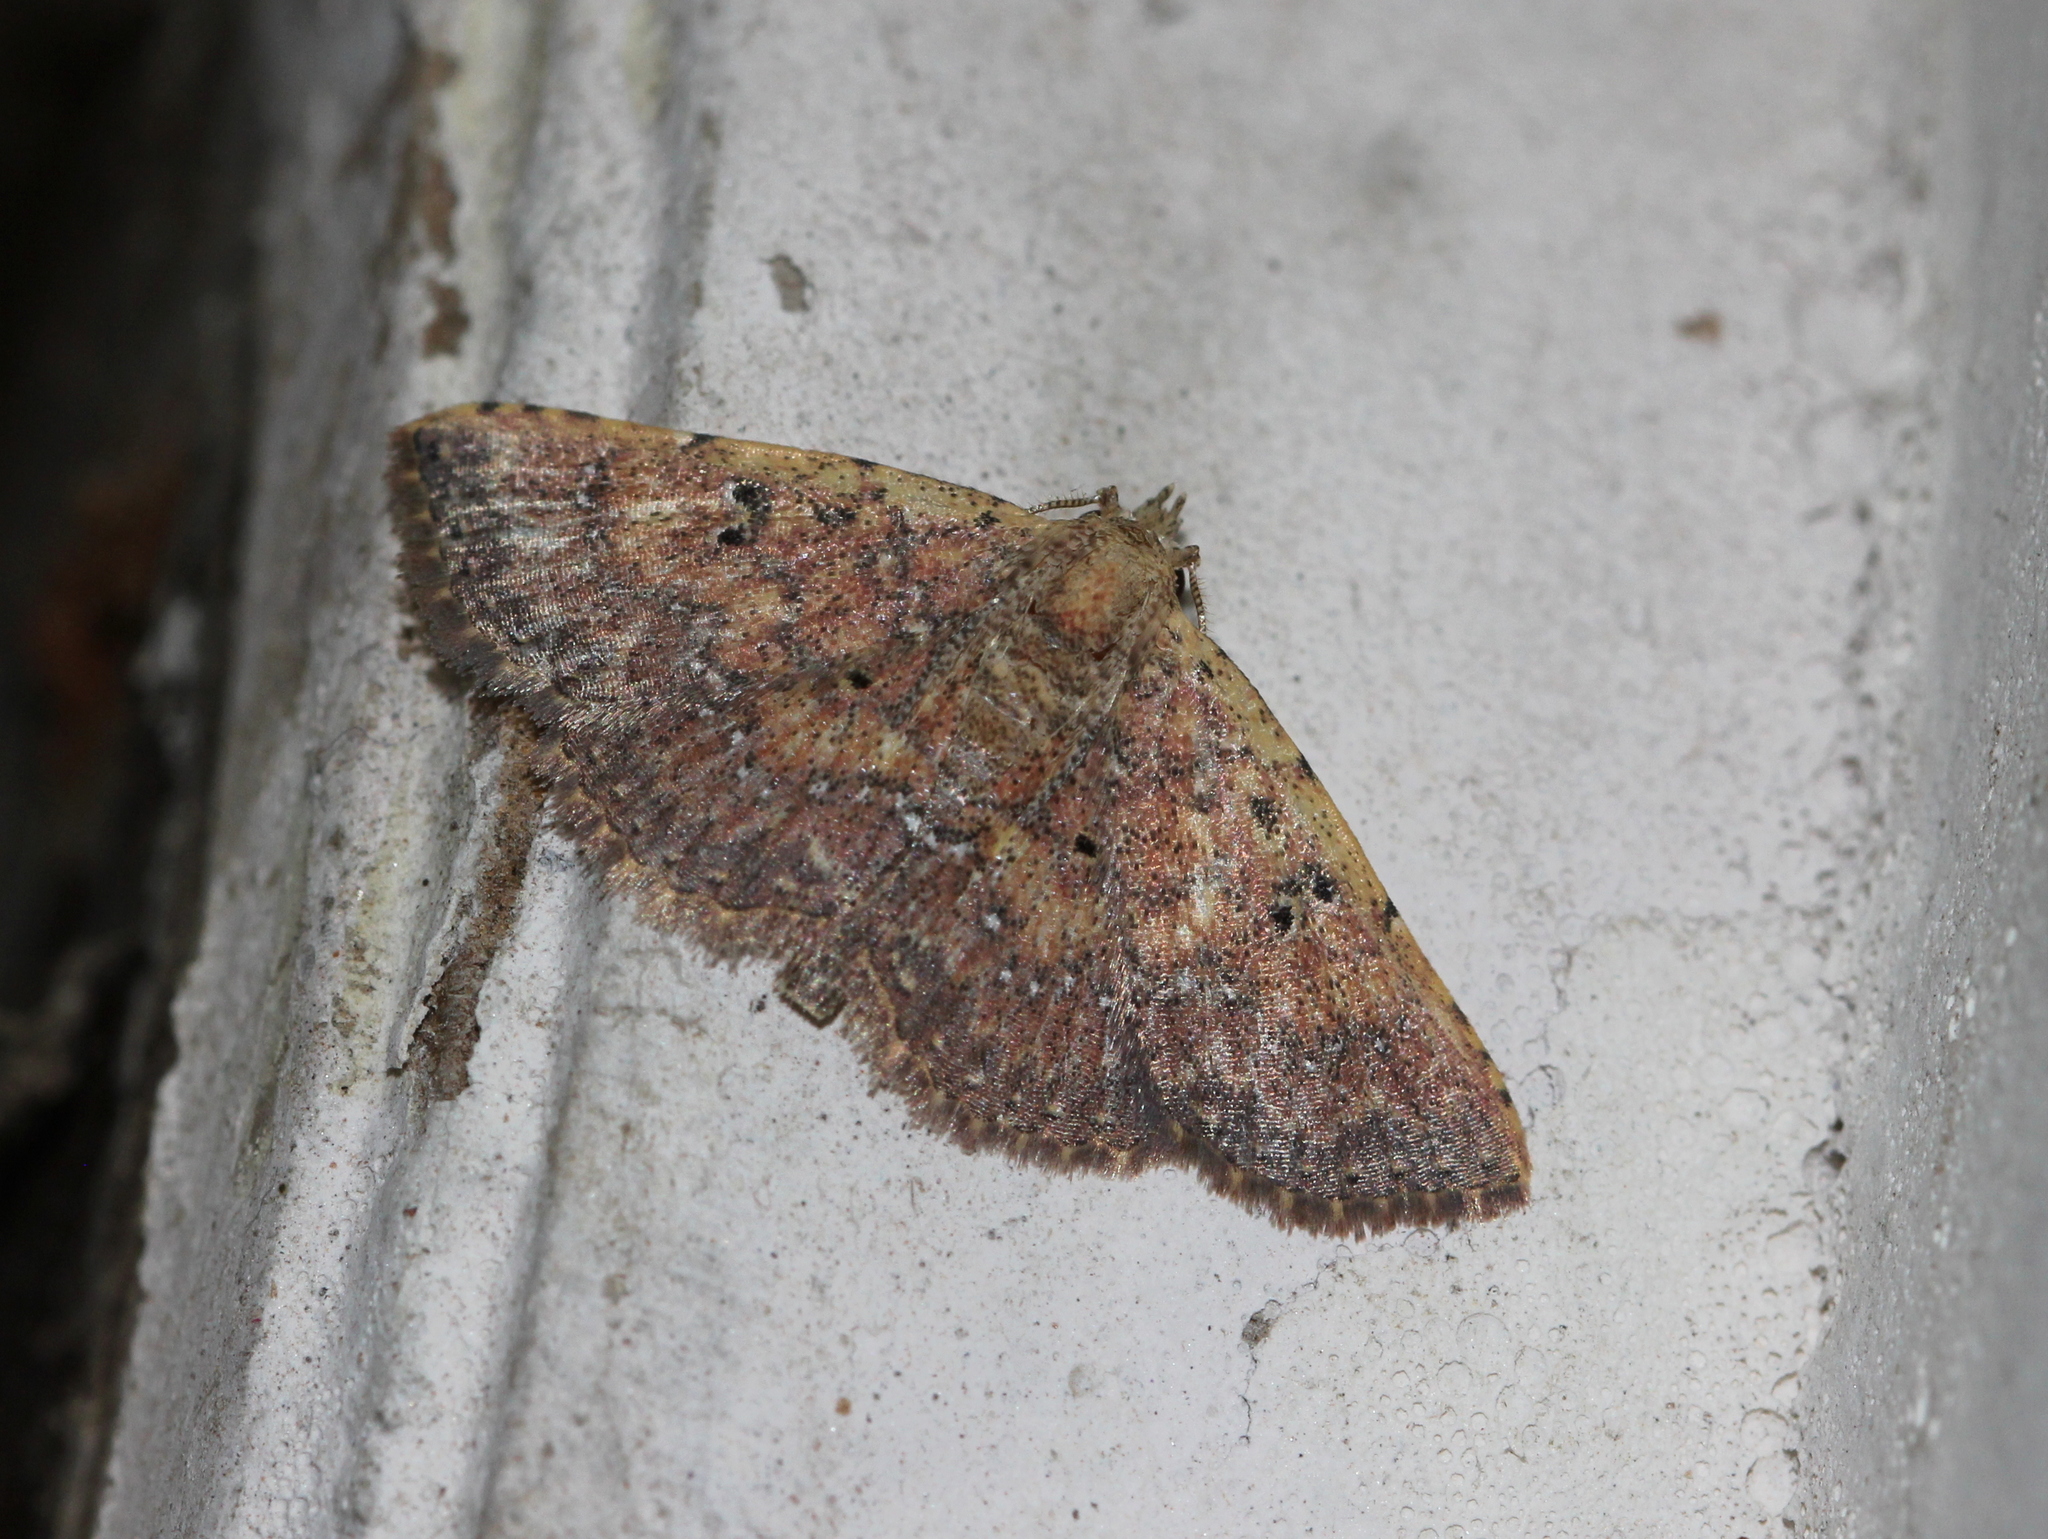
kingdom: Animalia
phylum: Arthropoda
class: Insecta
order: Lepidoptera
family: Noctuidae
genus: Cerynea
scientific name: Cerynea punctilinealis
